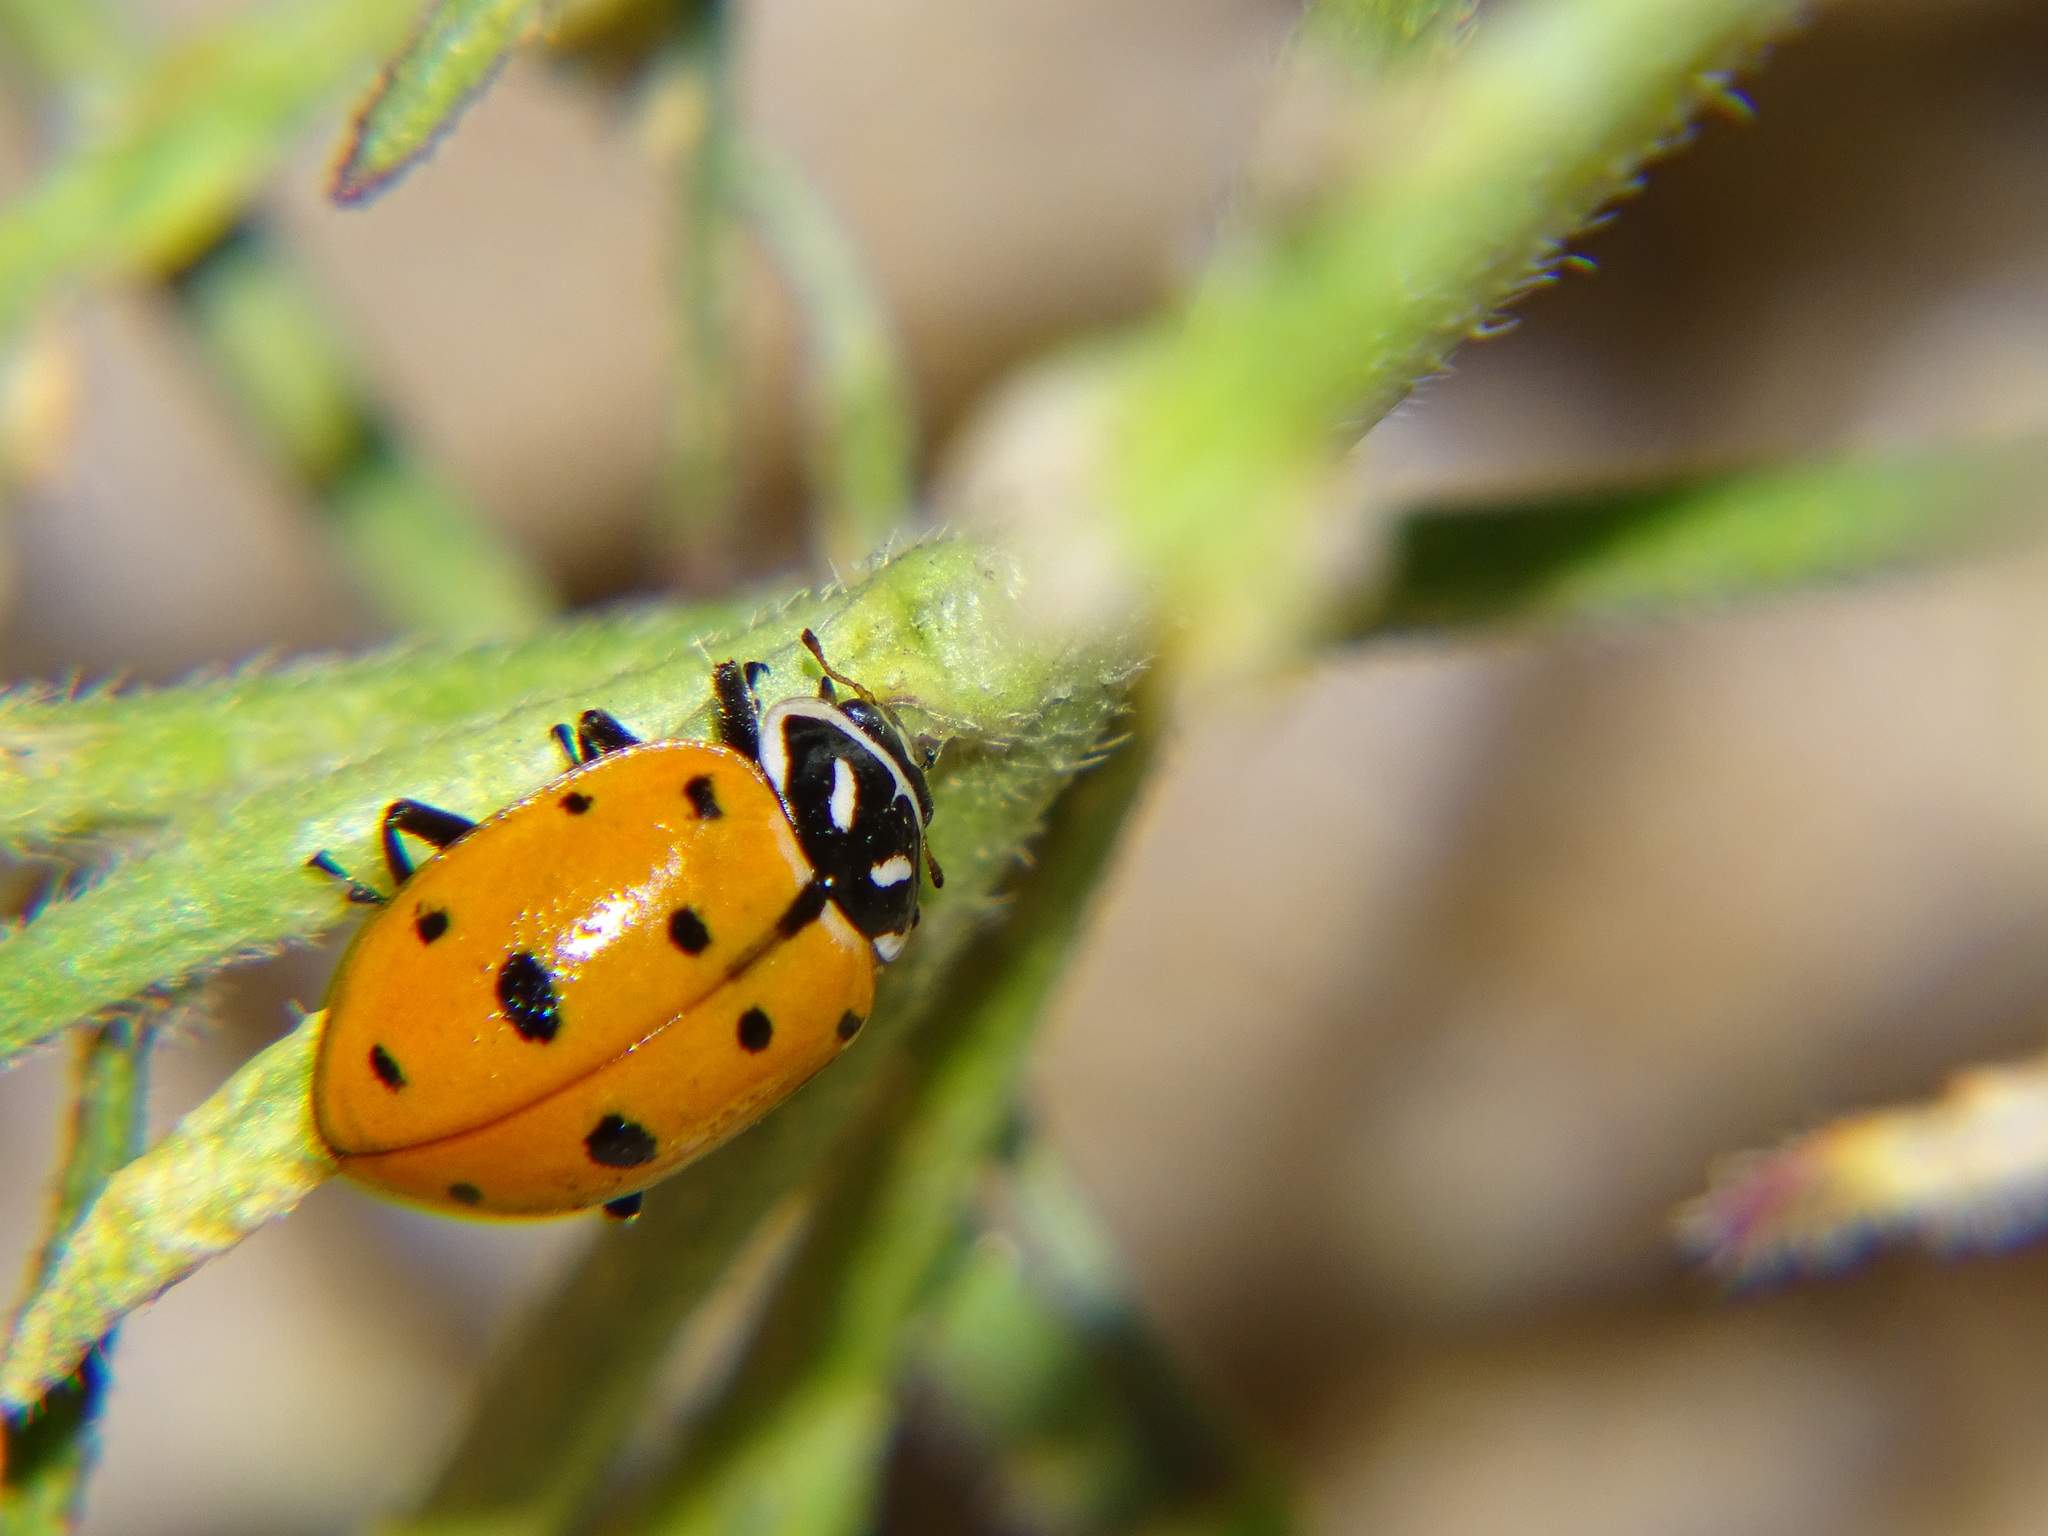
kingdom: Animalia
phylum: Arthropoda
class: Insecta
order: Coleoptera
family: Coccinellidae
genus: Hippodamia
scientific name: Hippodamia convergens
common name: Convergent lady beetle
